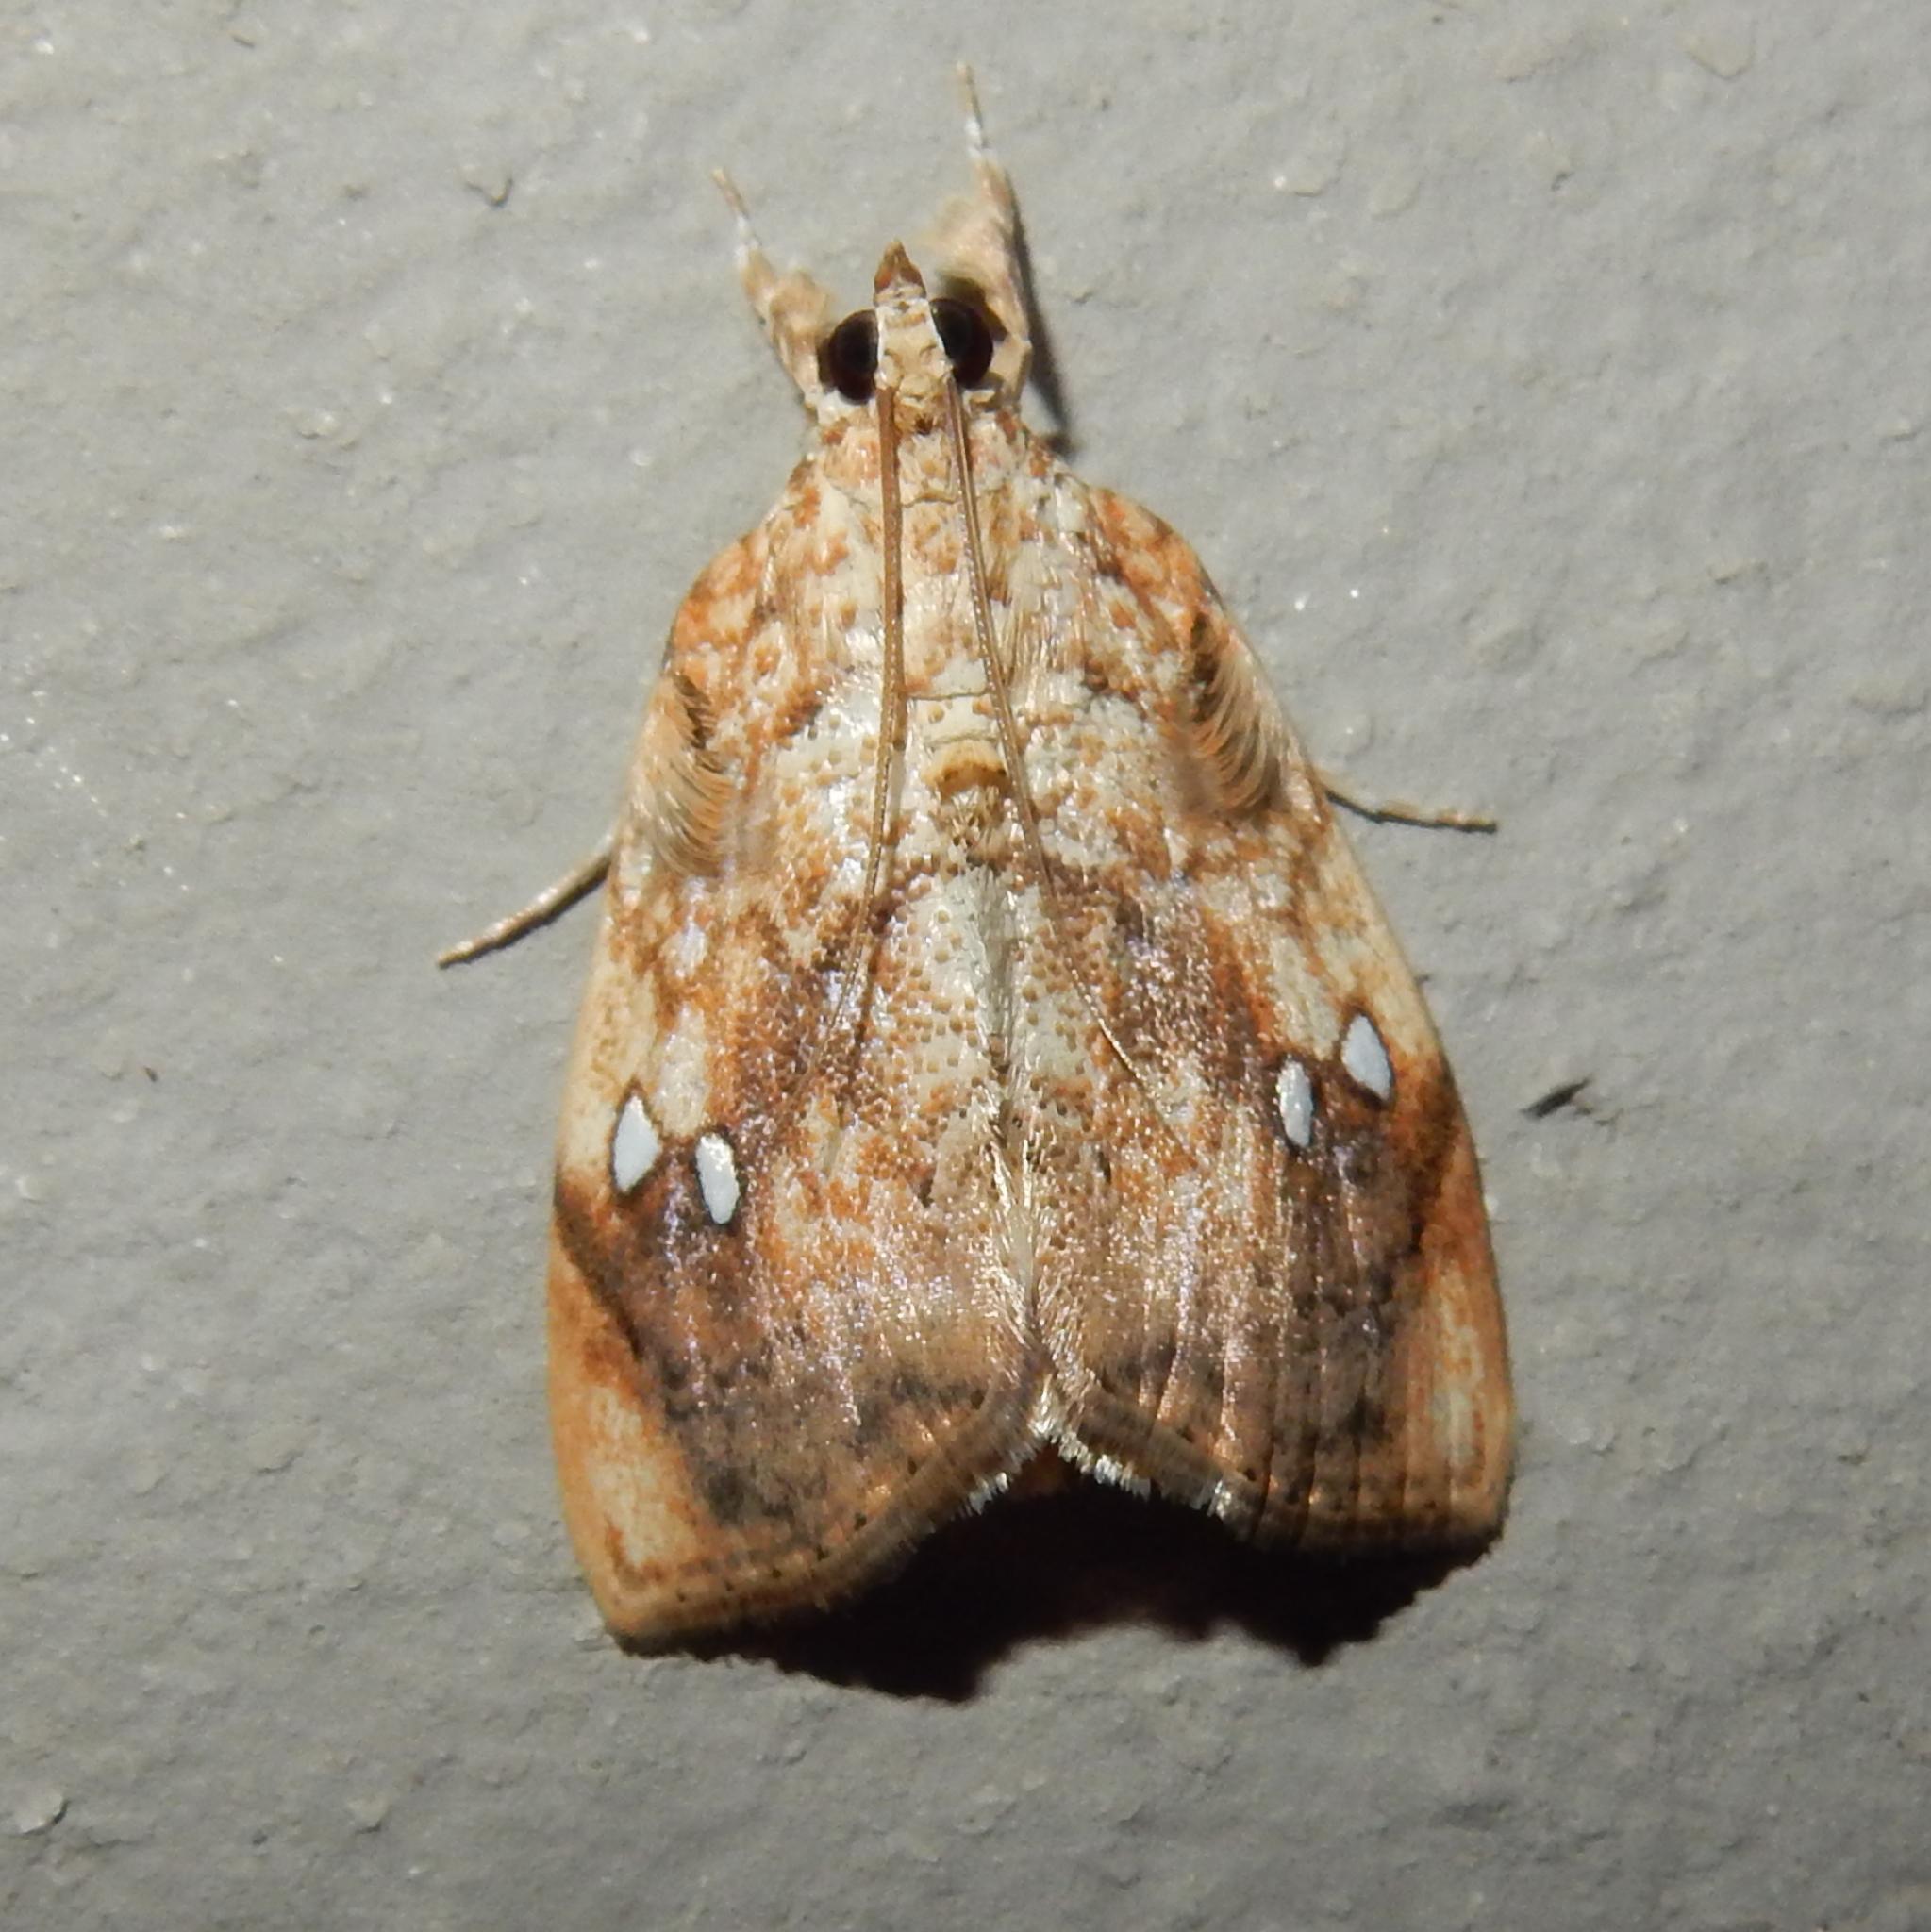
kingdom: Animalia
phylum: Arthropoda
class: Insecta
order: Lepidoptera
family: Crambidae
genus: Crocidolomia
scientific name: Crocidolomia pavonana
